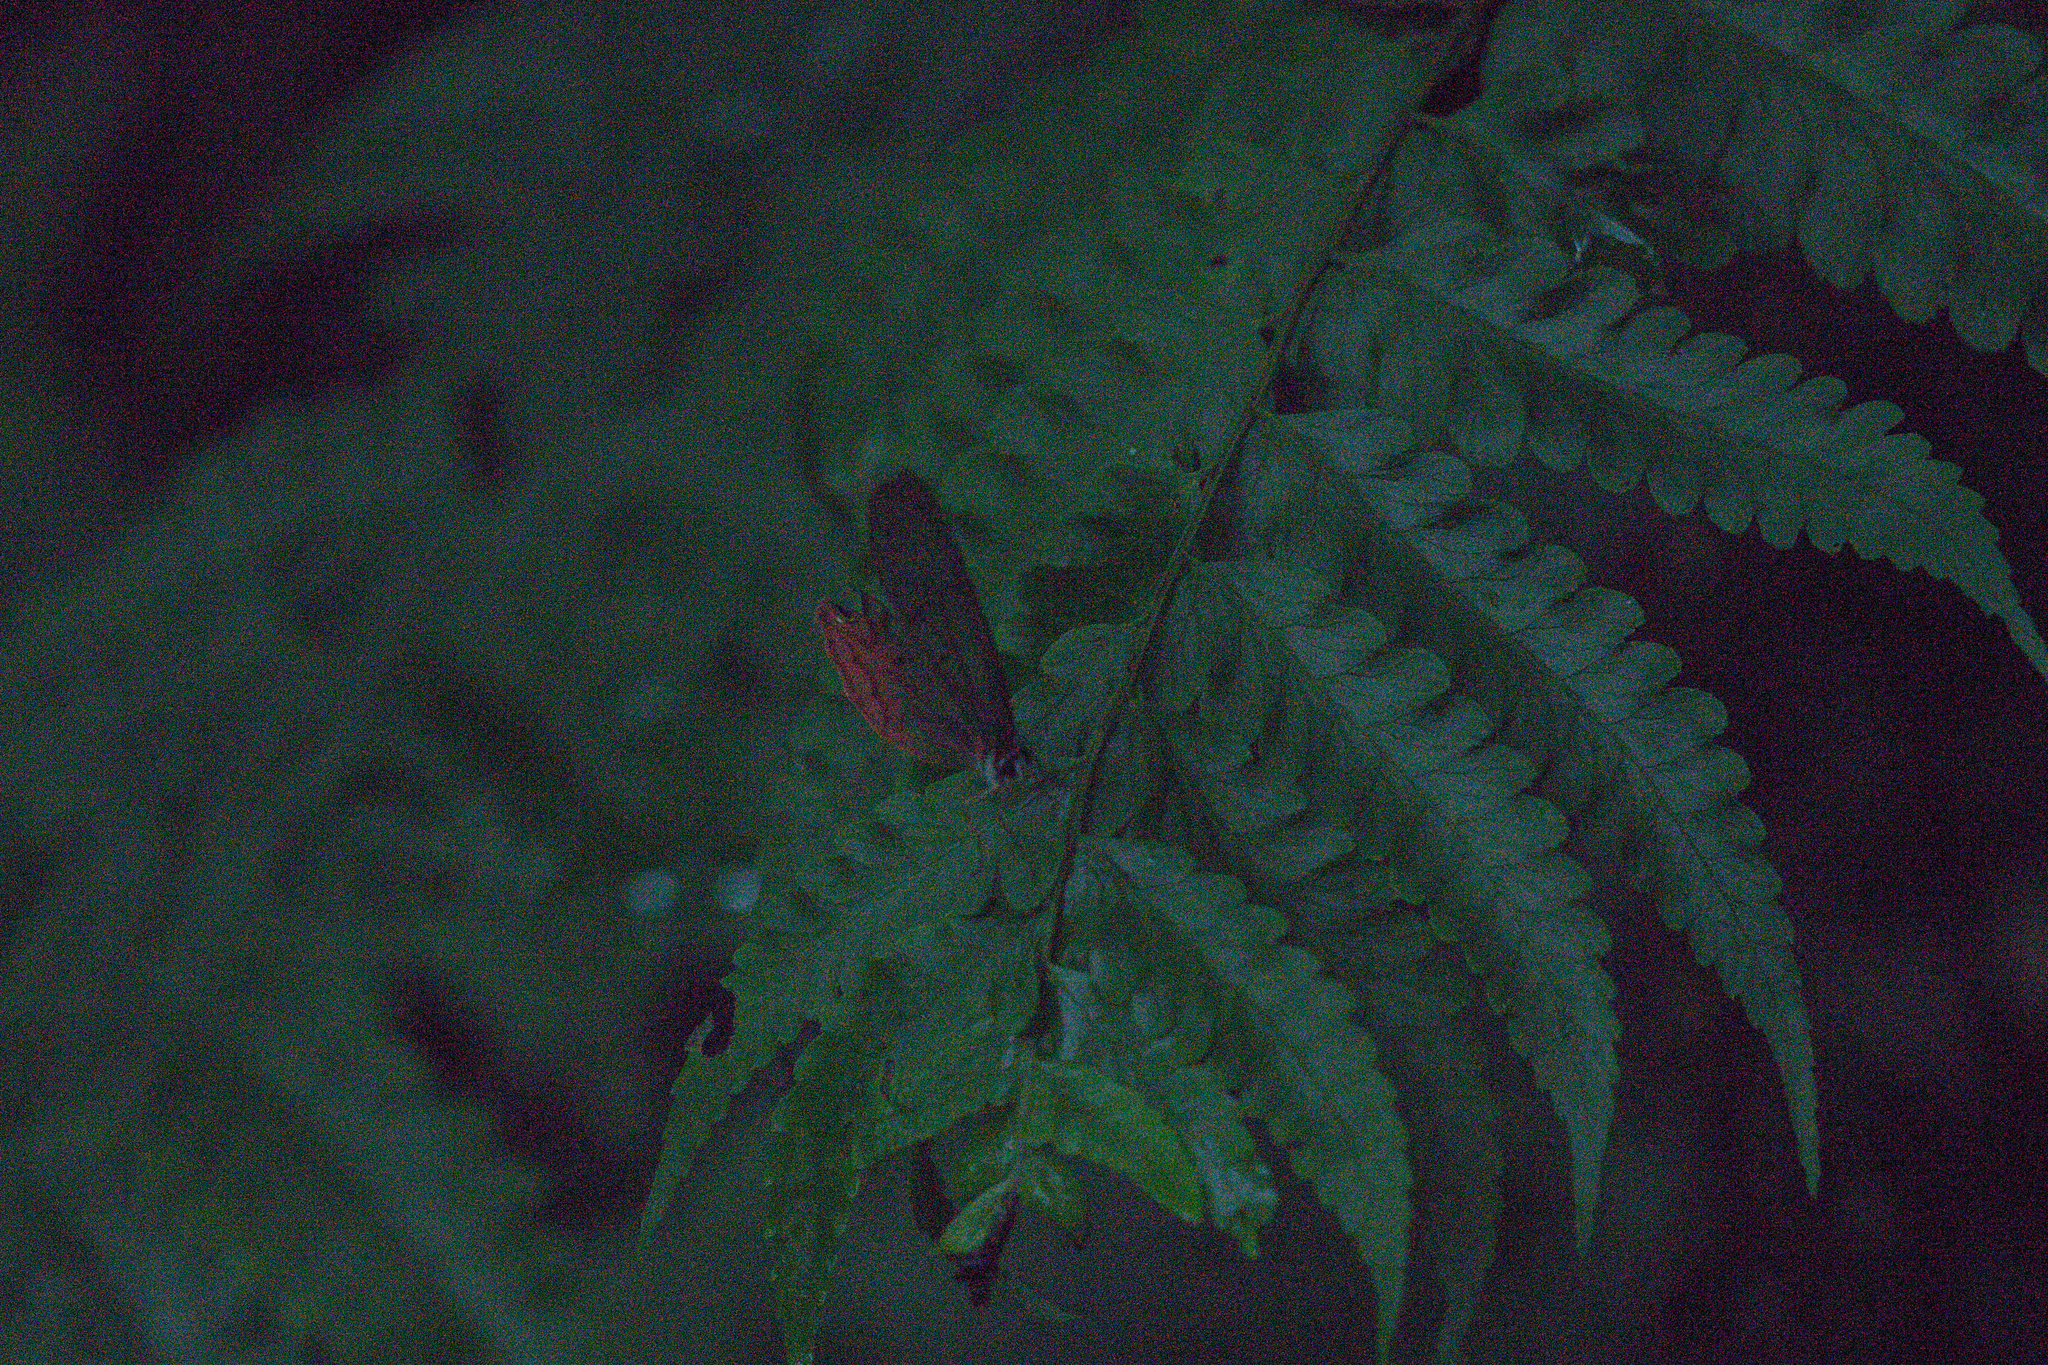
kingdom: Animalia
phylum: Arthropoda
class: Insecta
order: Lepidoptera
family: Nymphalidae
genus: Cithaerias
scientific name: Cithaerias pireta
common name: Rusted clearwing-satyr
